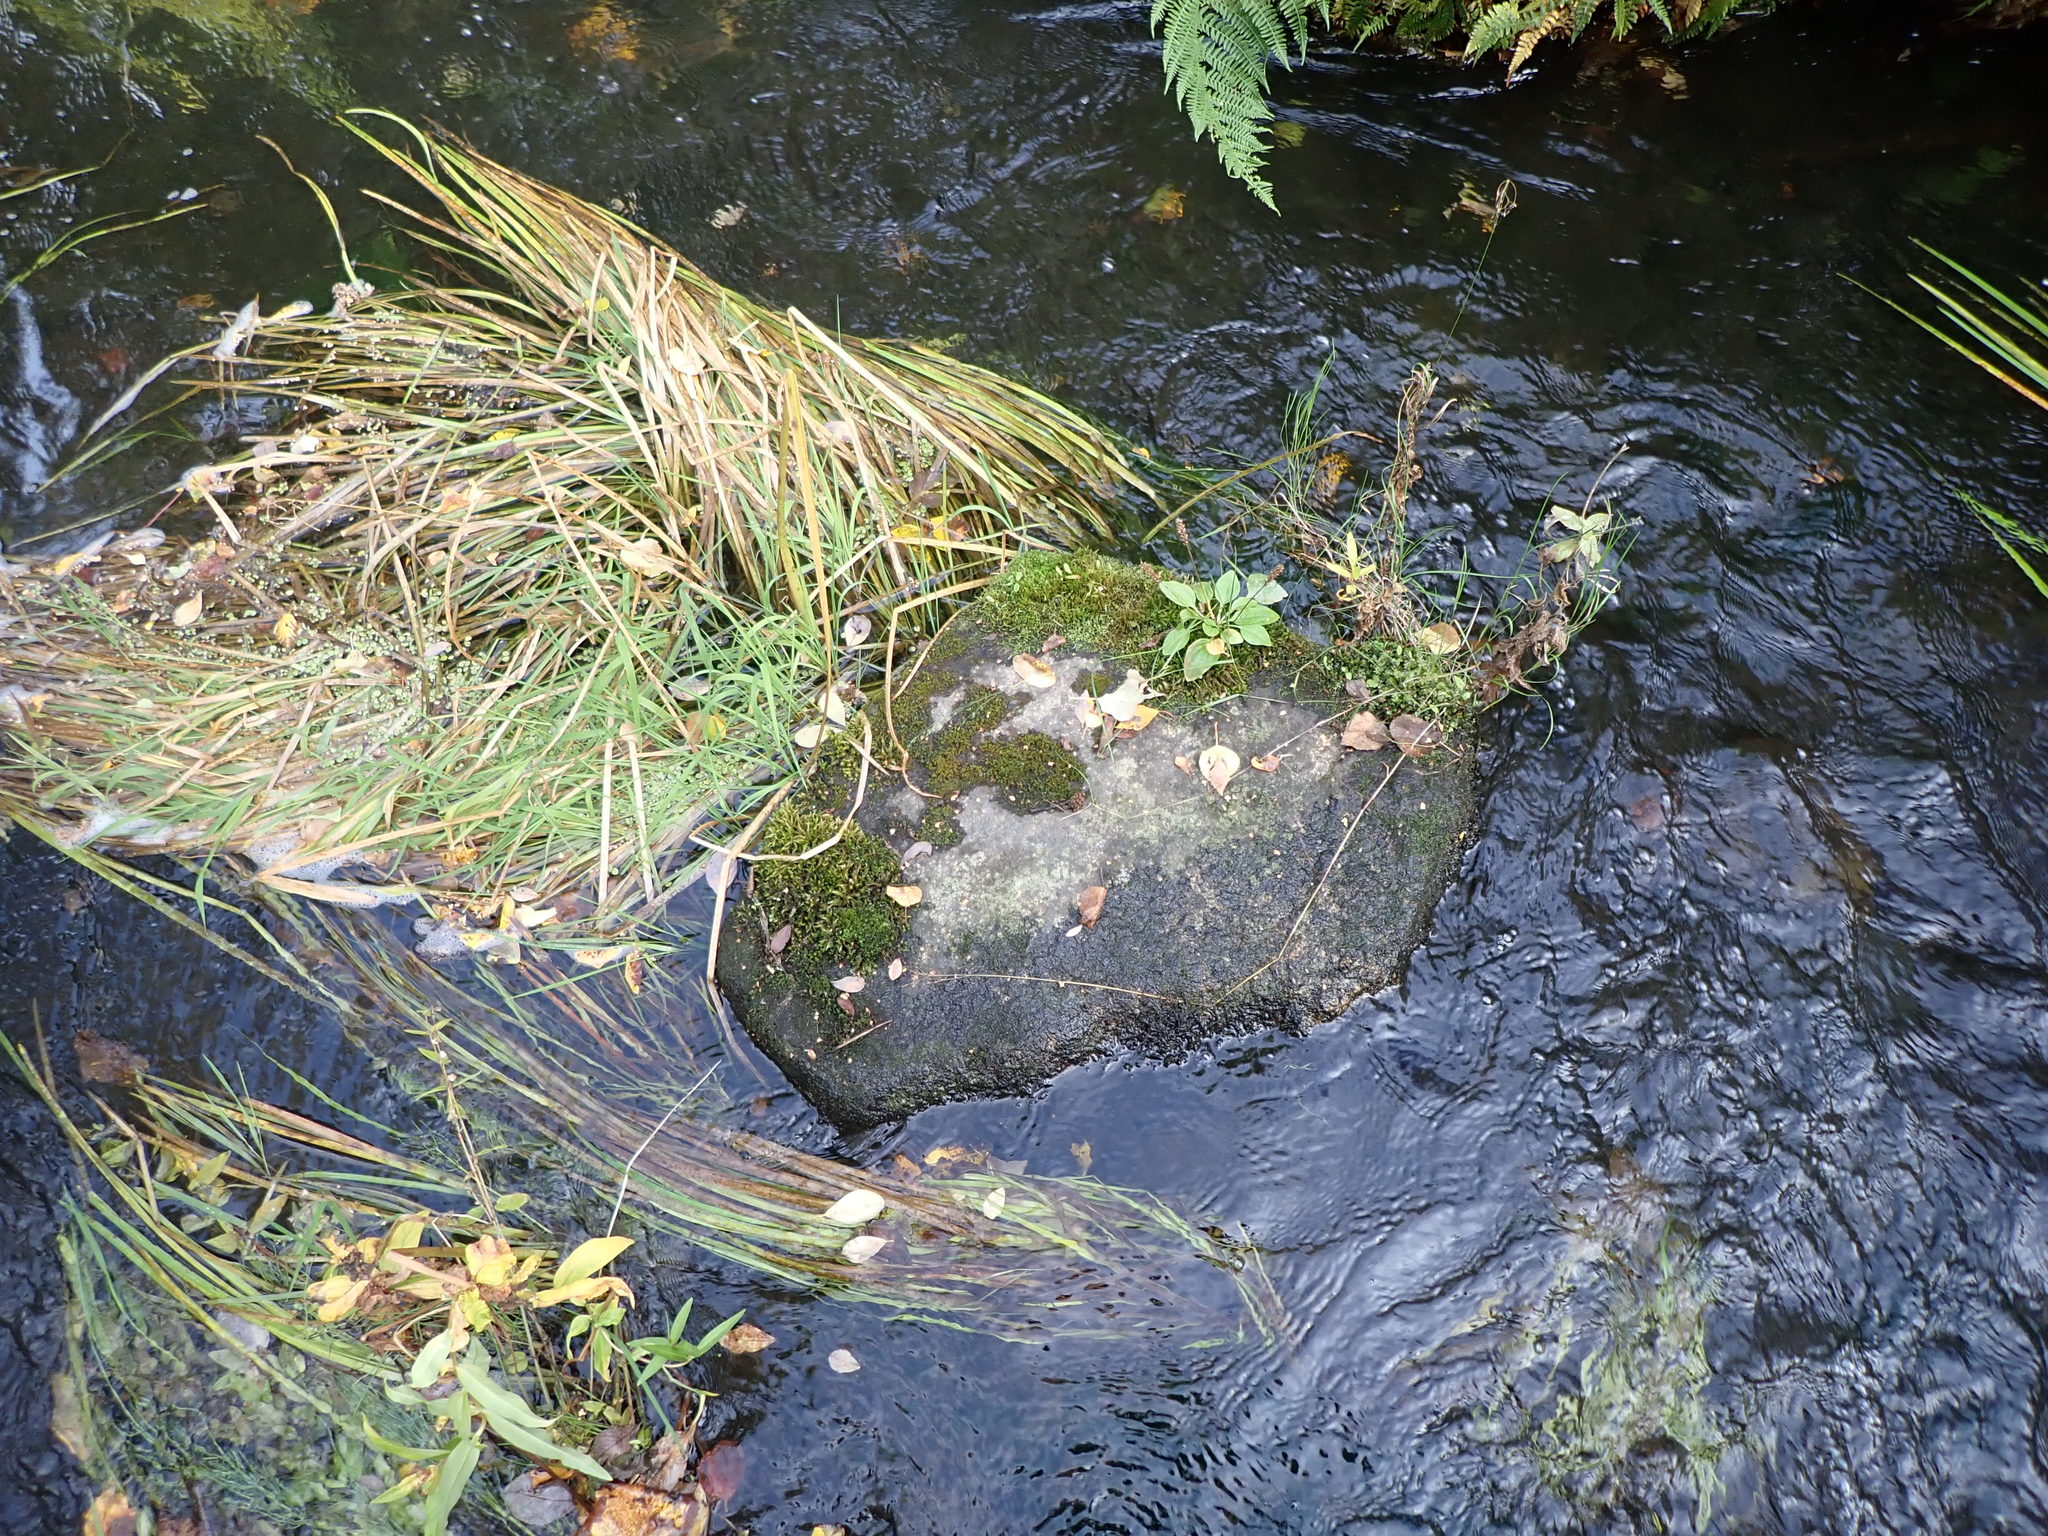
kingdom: Plantae
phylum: Tracheophyta
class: Magnoliopsida
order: Lamiales
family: Plantaginaceae
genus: Plantago
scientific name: Plantago major
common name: Common plantain
